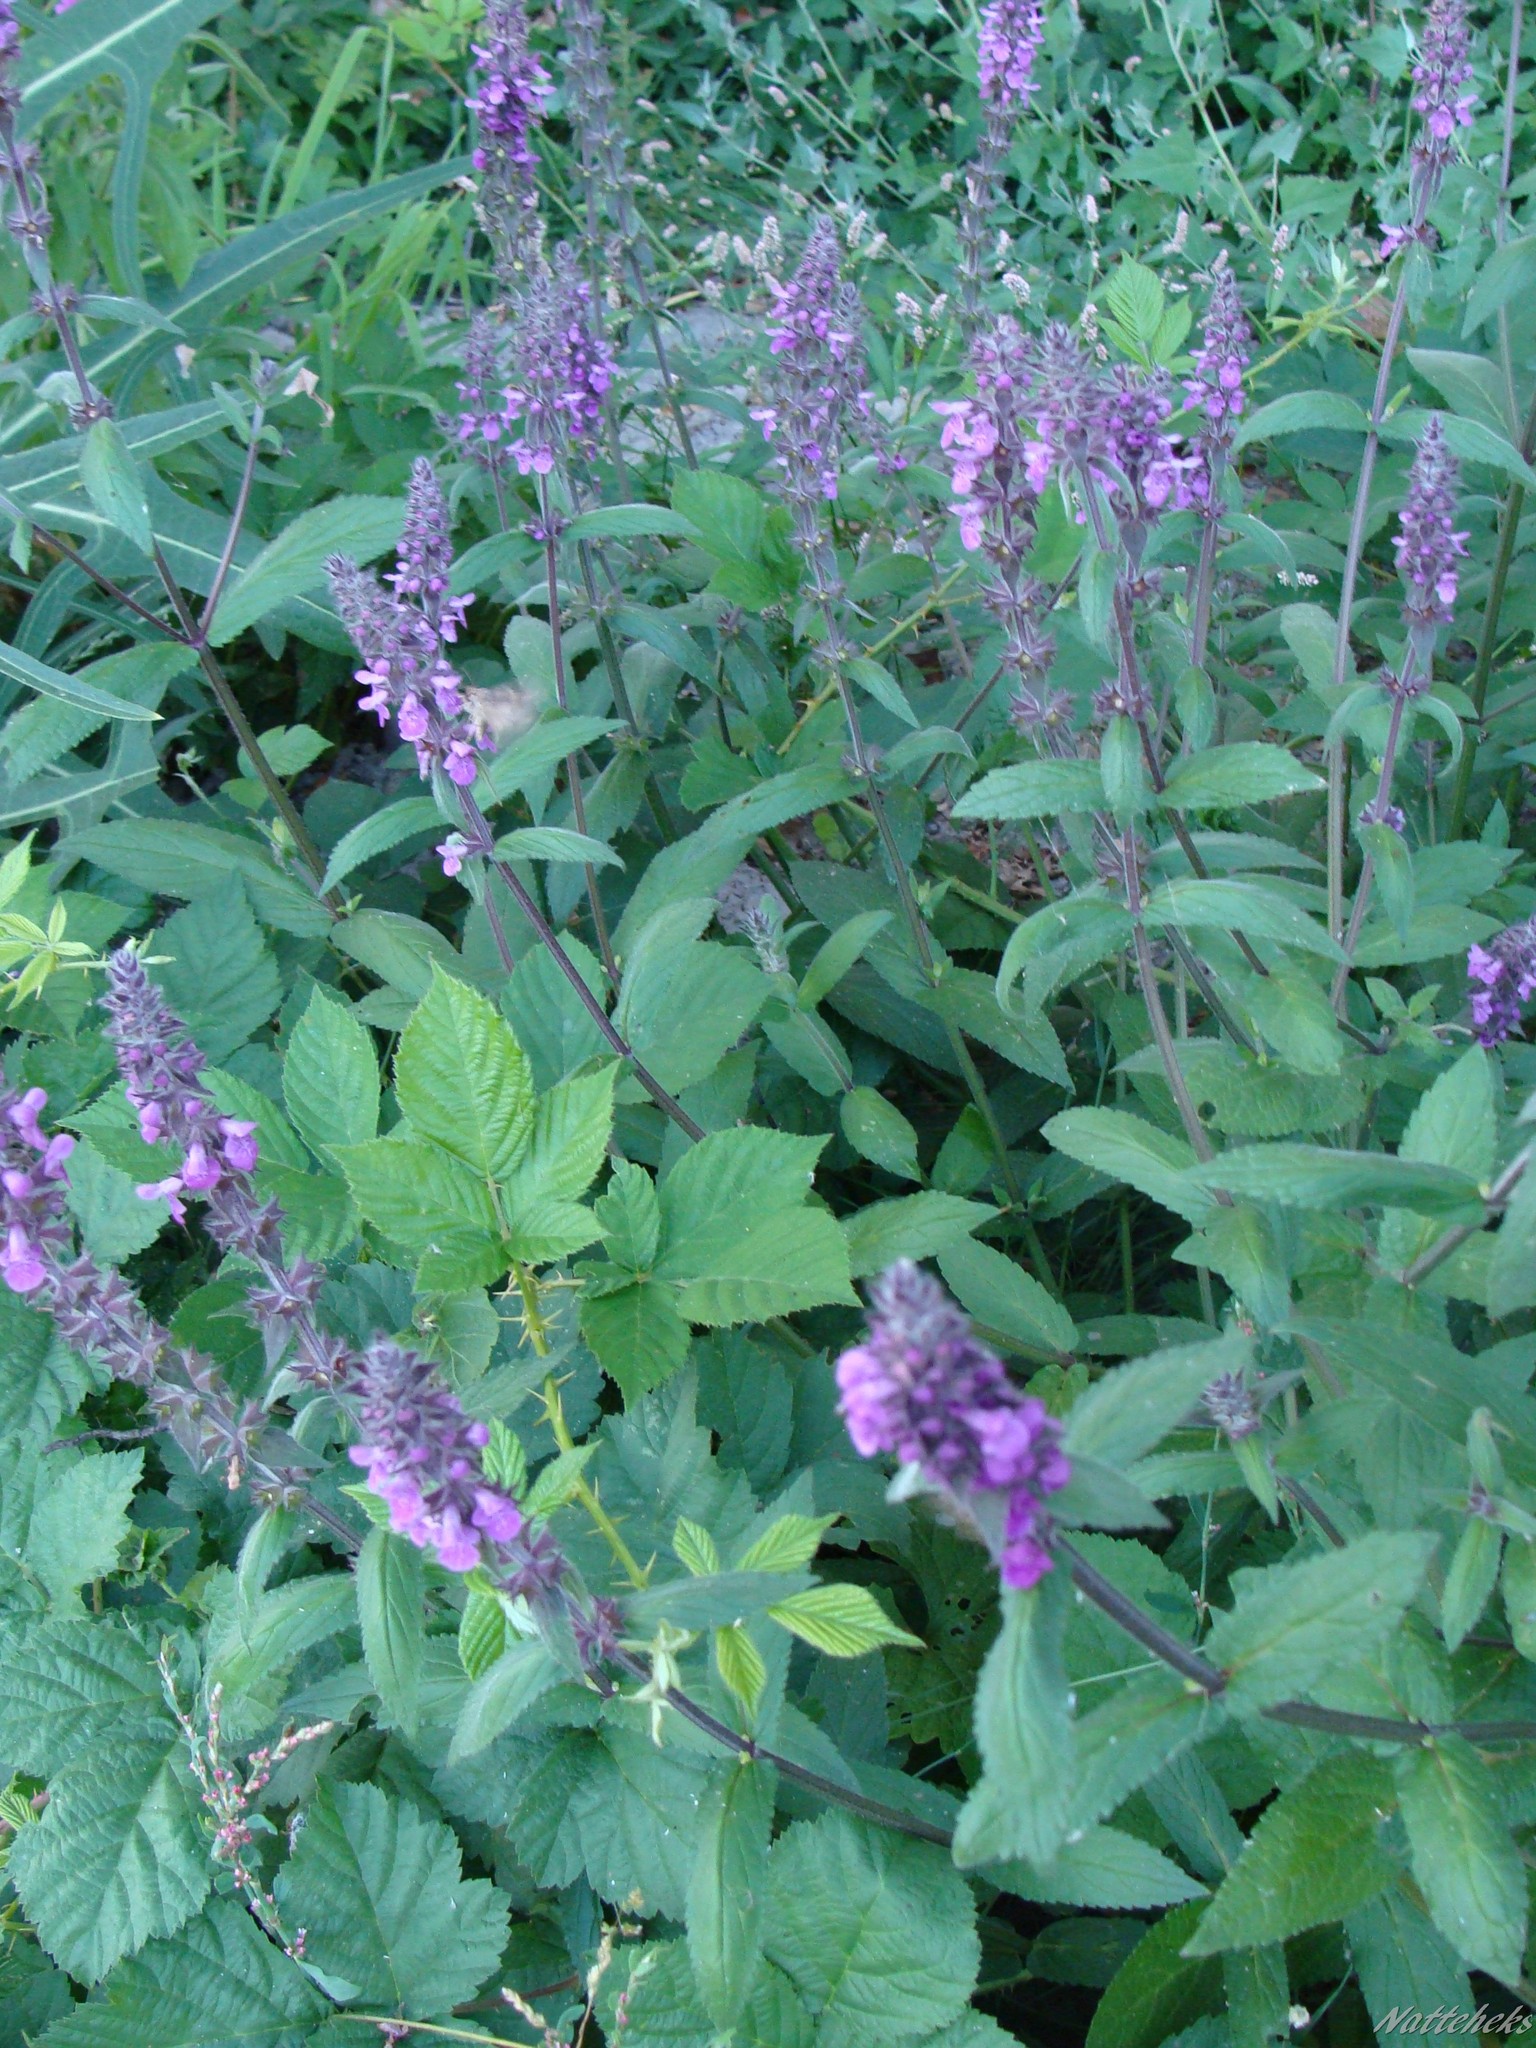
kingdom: Plantae
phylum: Tracheophyta
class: Magnoliopsida
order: Lamiales
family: Lamiaceae
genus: Stachys
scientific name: Stachys palustris
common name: Marsh woundwort
